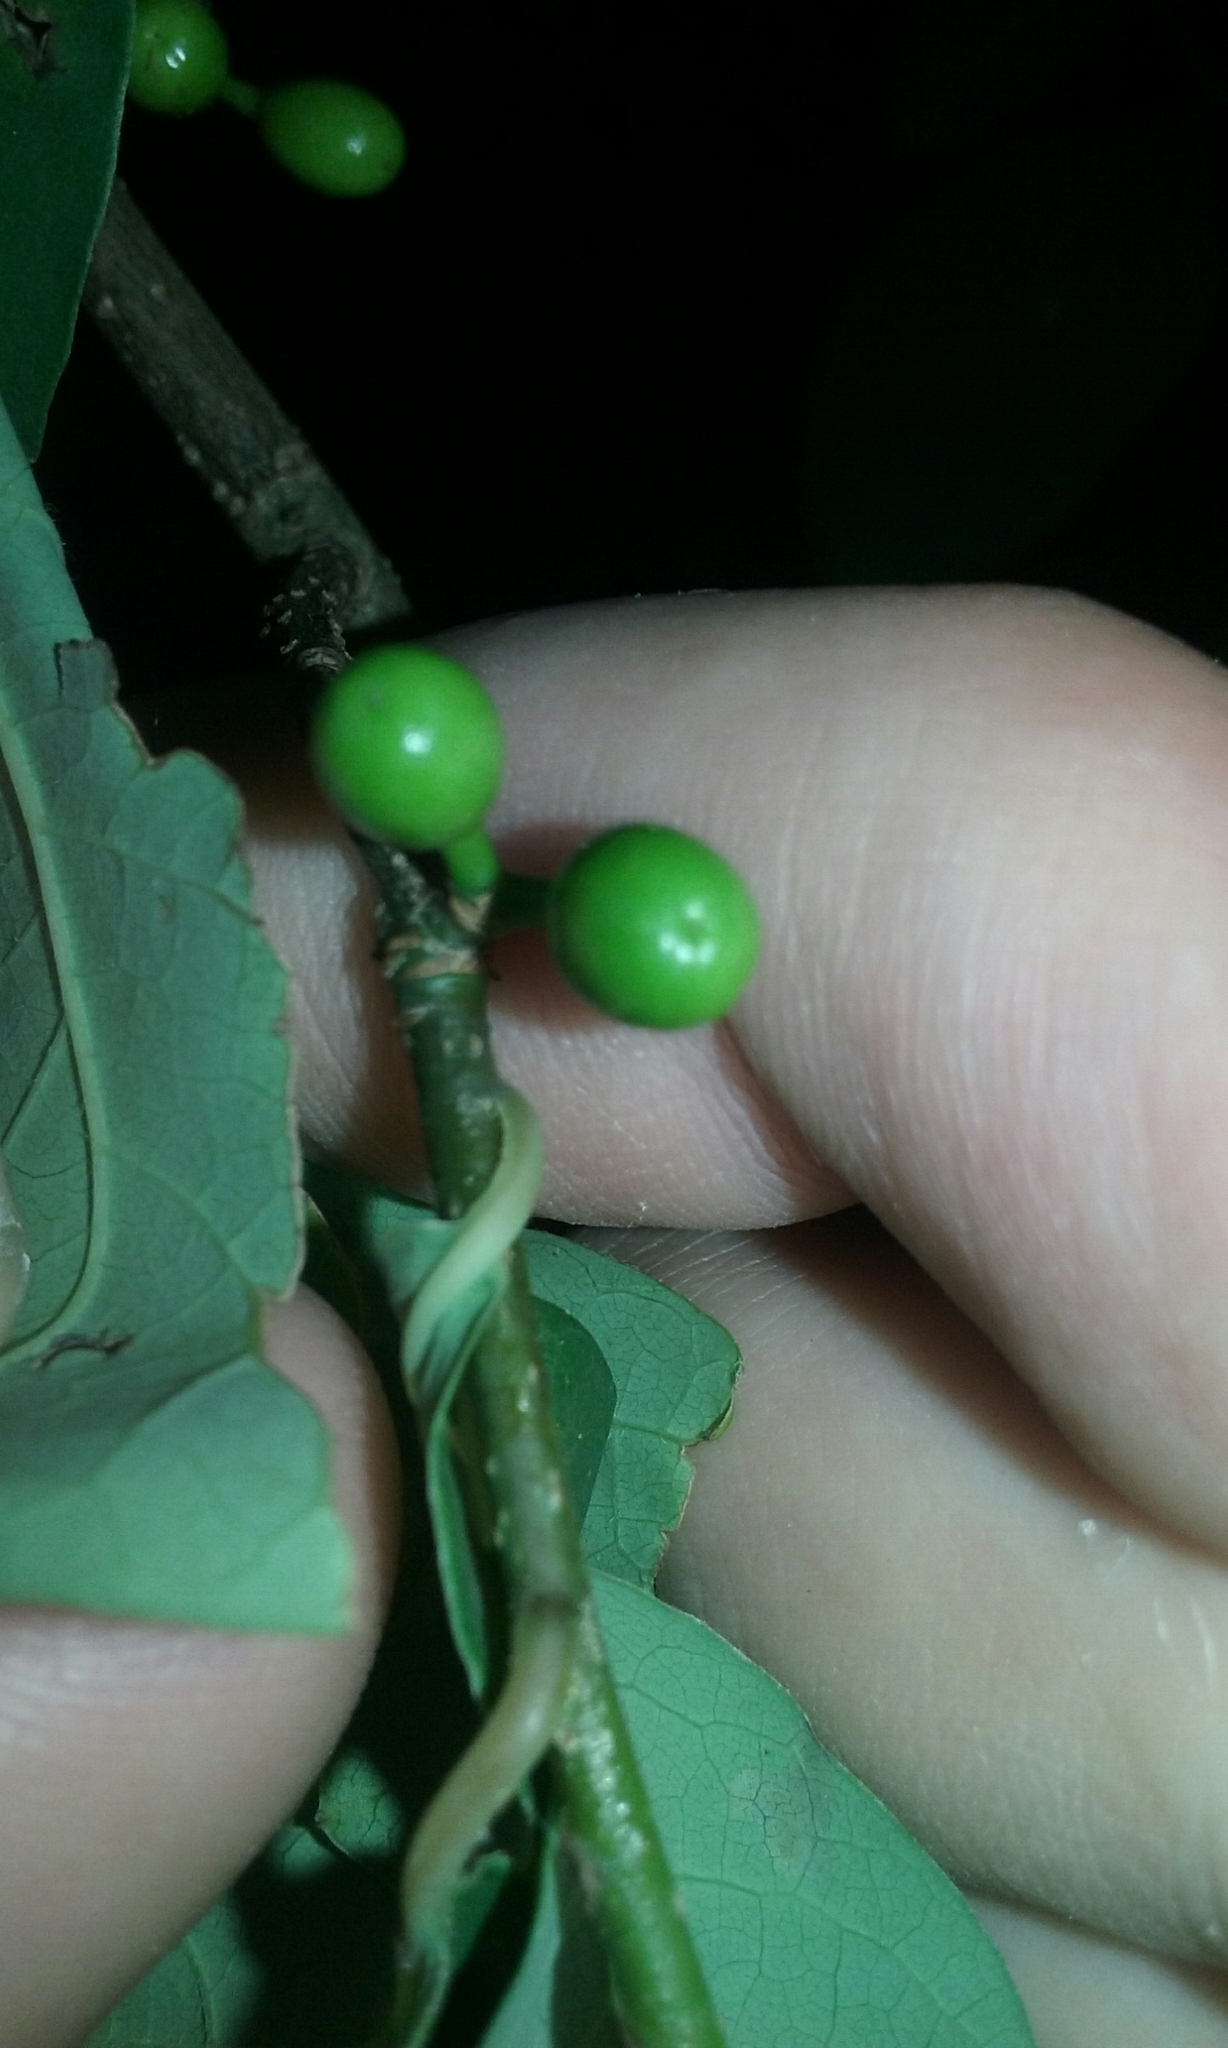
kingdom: Plantae
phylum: Tracheophyta
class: Magnoliopsida
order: Laurales
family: Lauraceae
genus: Lindera
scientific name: Lindera benzoin
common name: Spicebush
